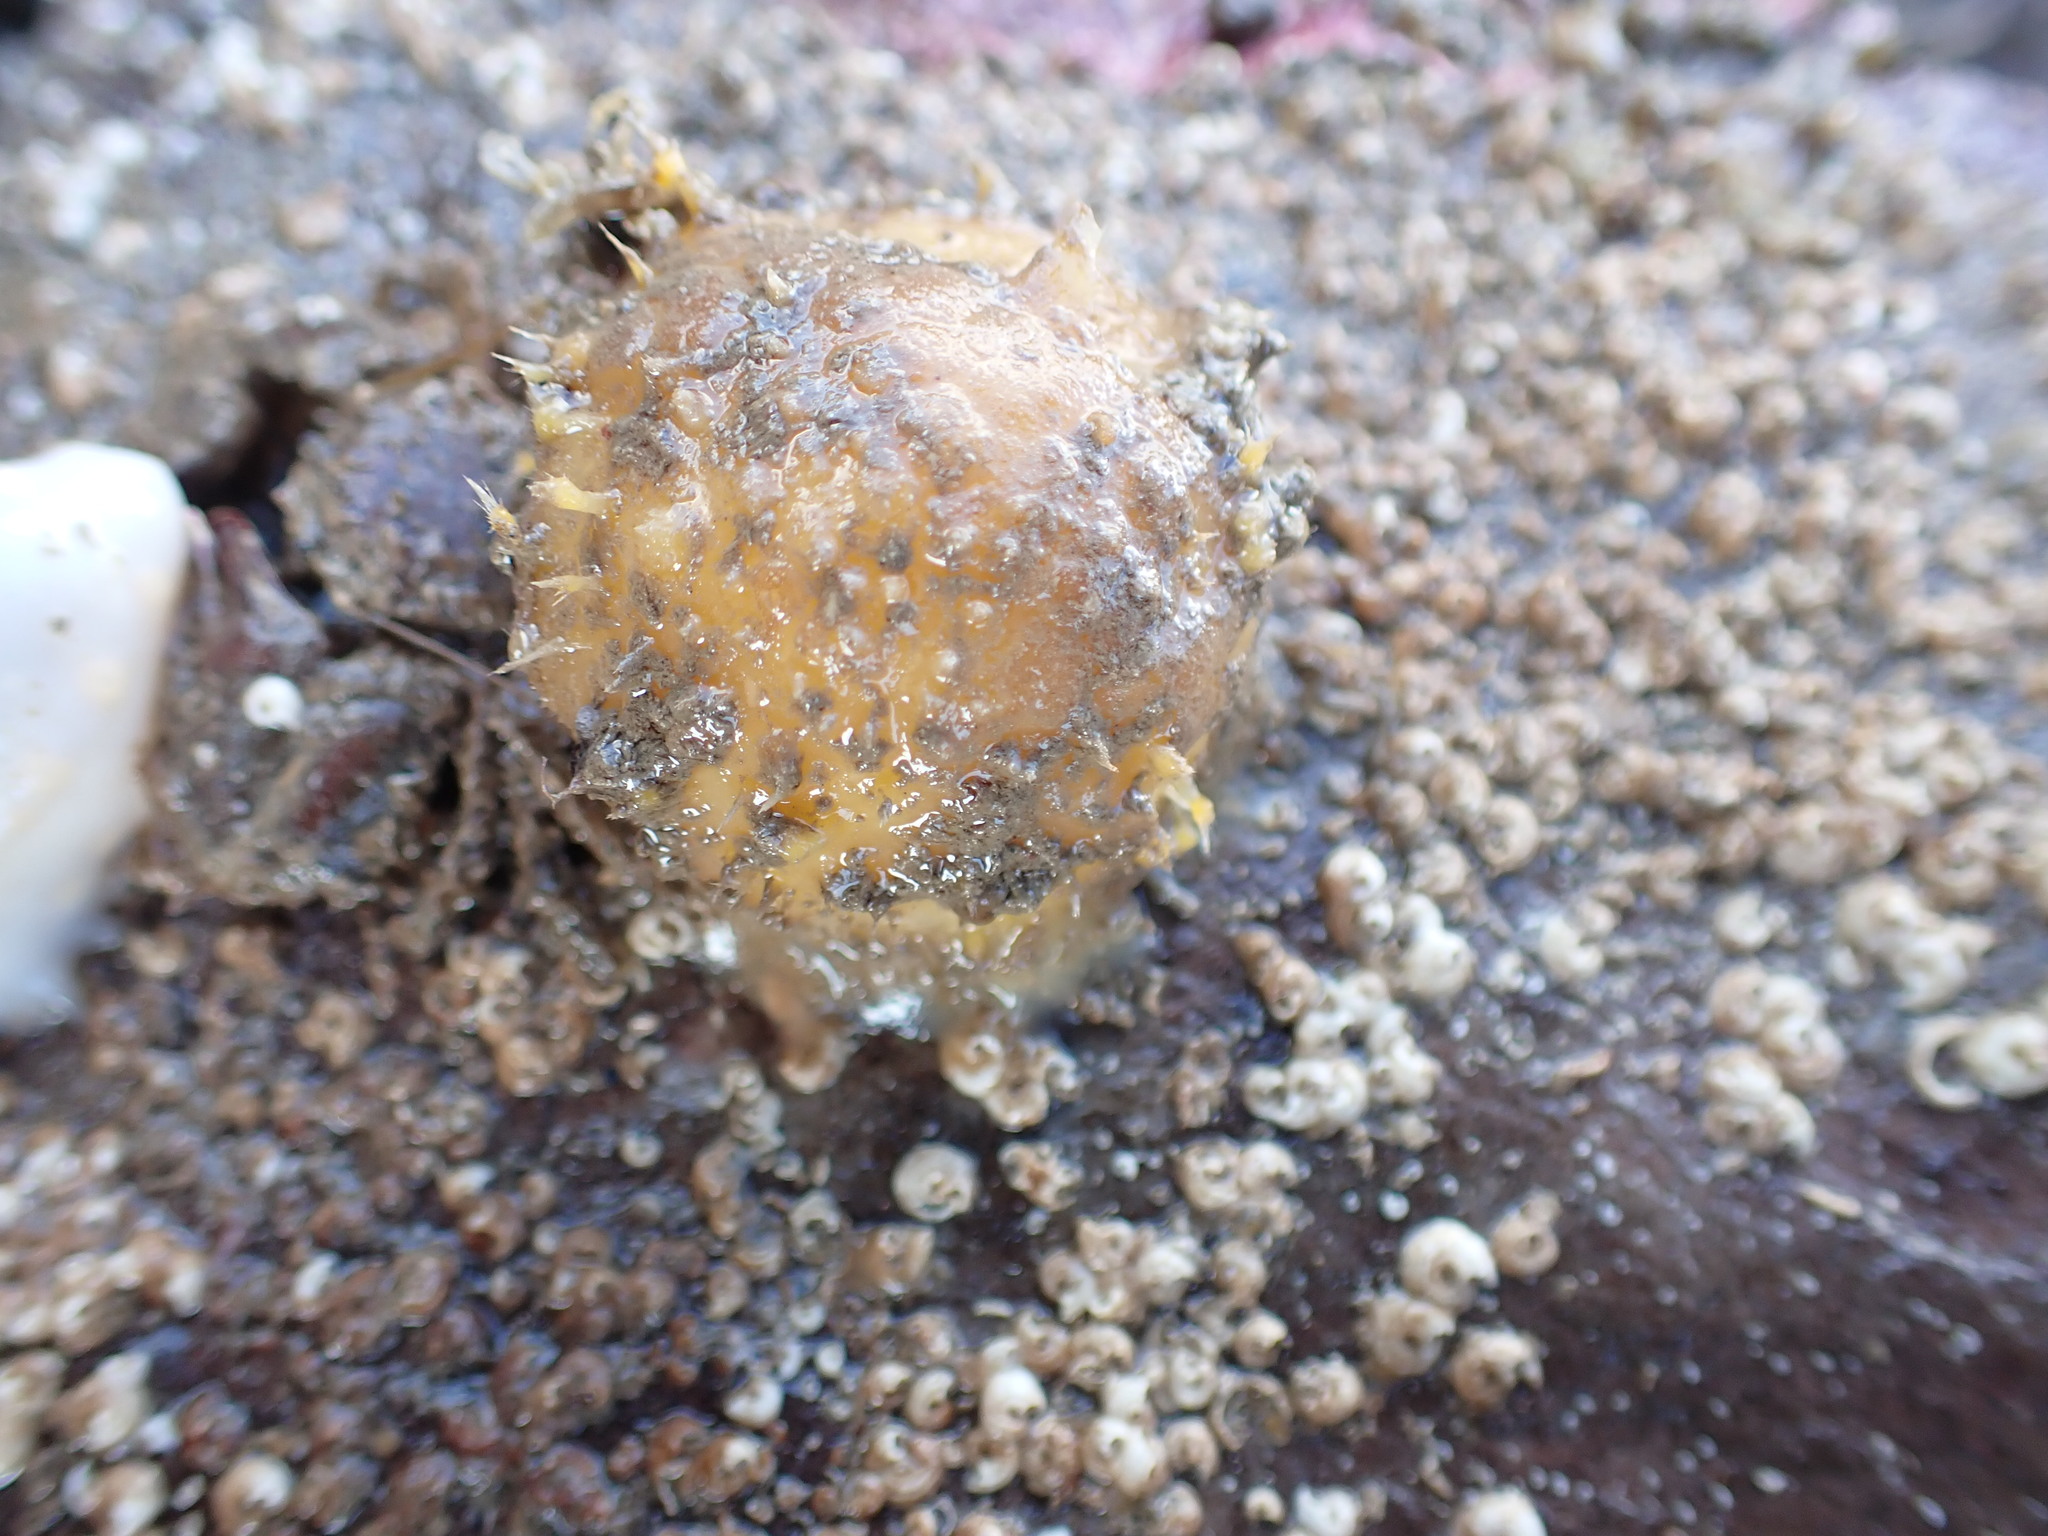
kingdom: Animalia
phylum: Porifera
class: Demospongiae
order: Tethyida
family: Tethyidae
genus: Tethya
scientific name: Tethya citrina
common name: Sea lemon
